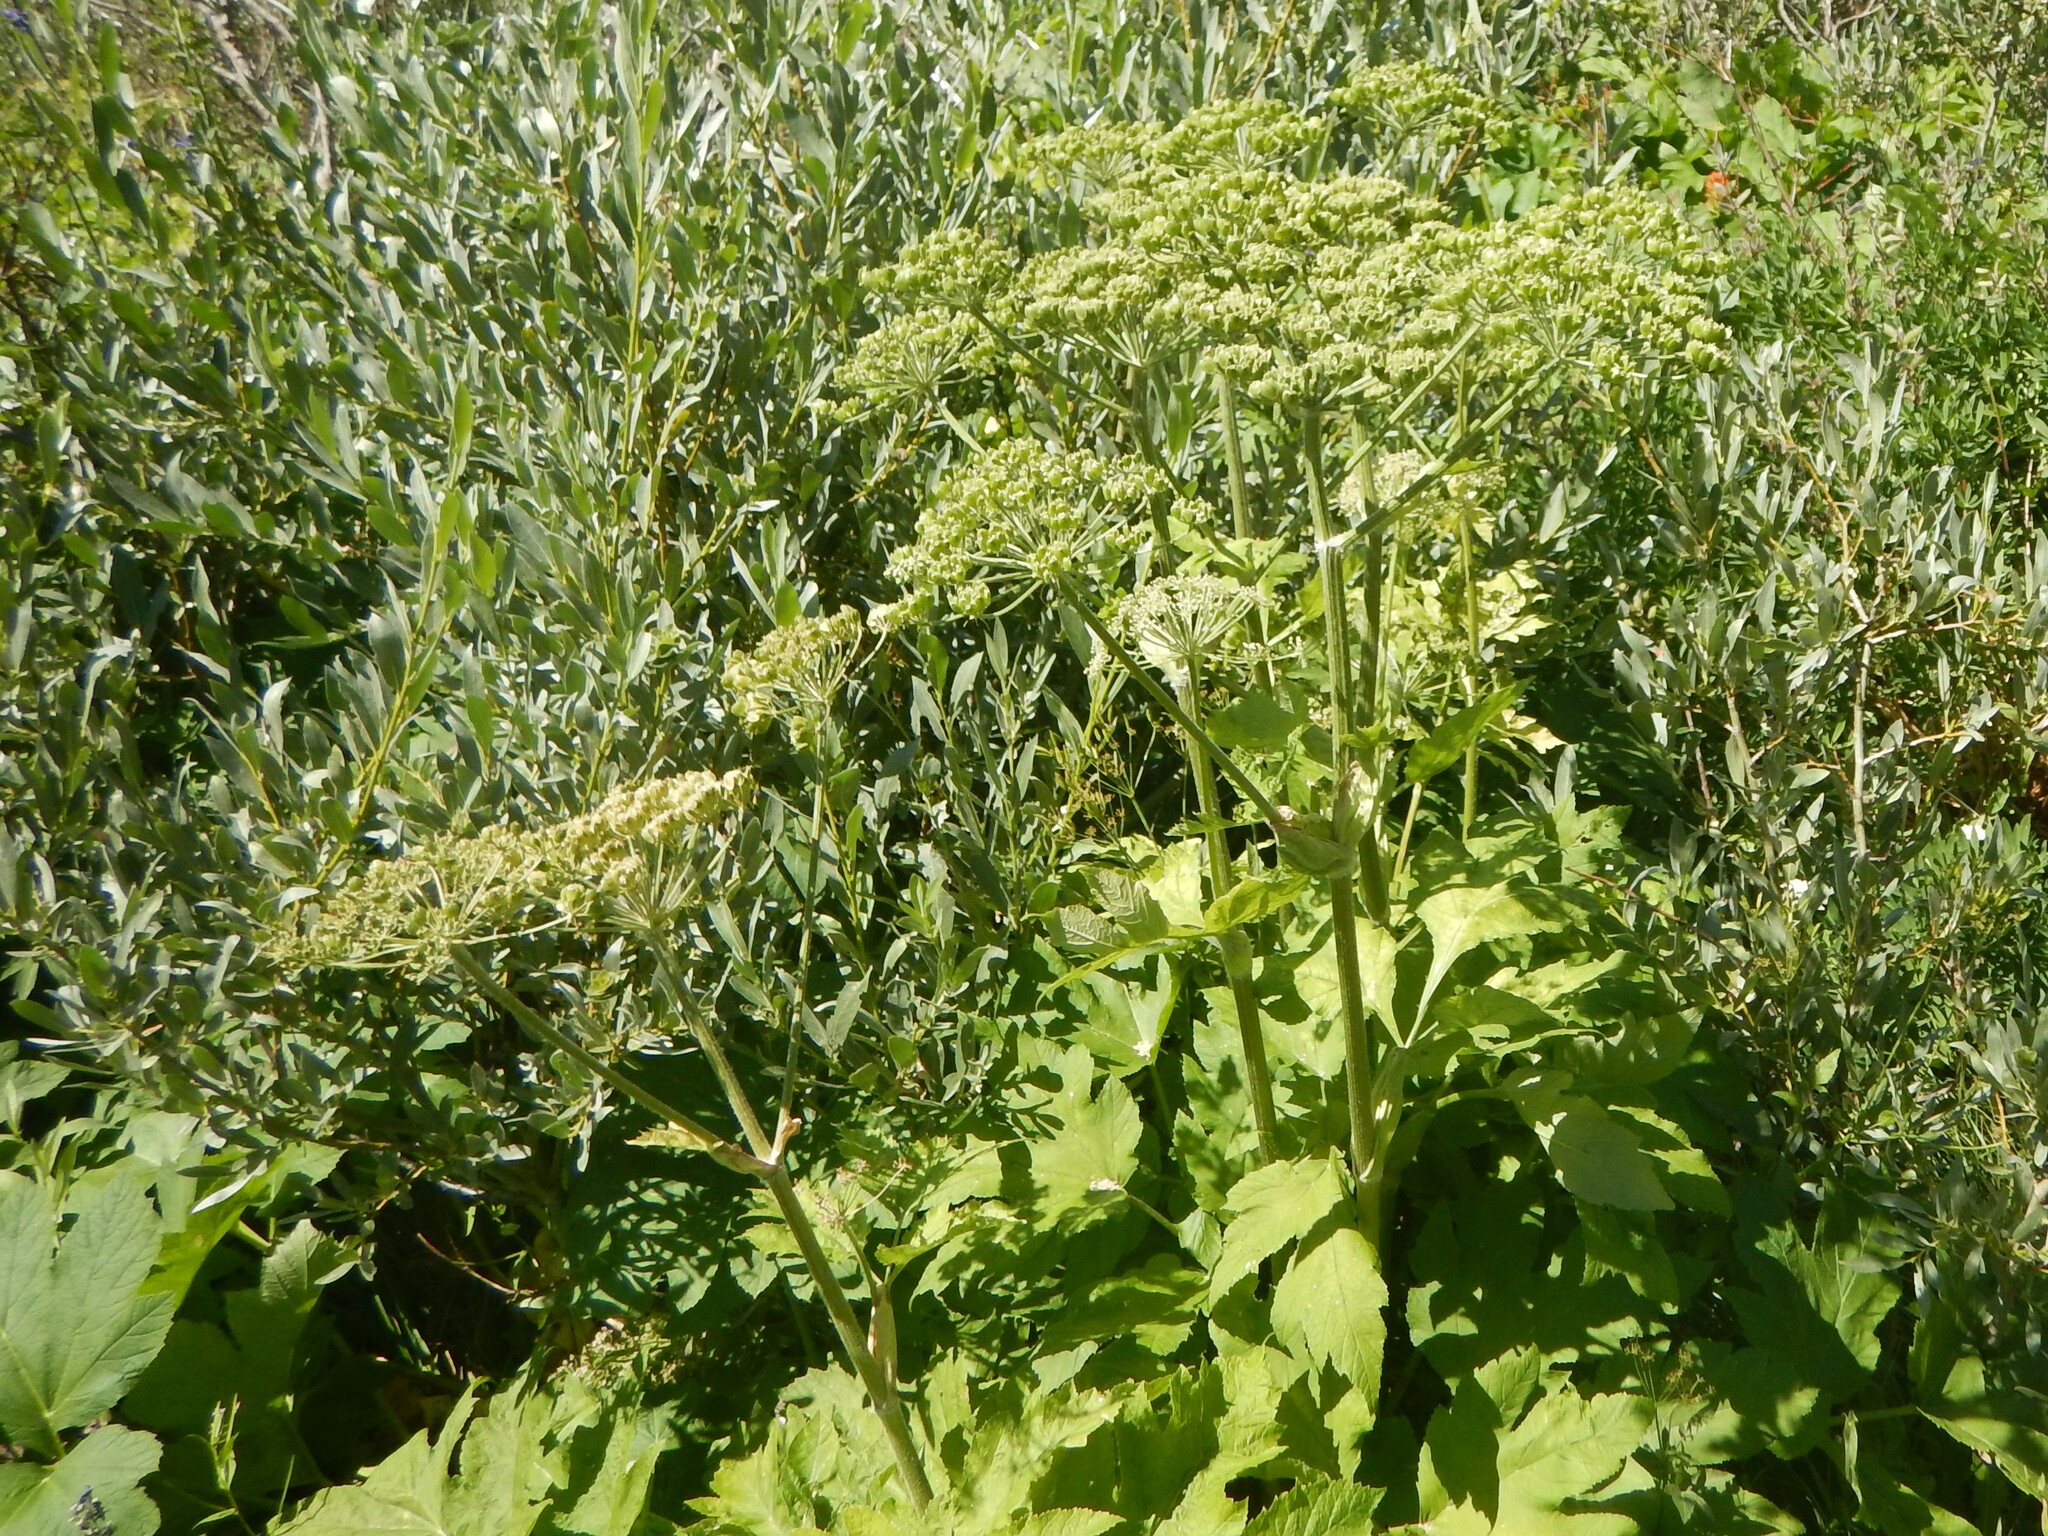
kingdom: Plantae
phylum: Tracheophyta
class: Magnoliopsida
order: Apiales
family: Apiaceae
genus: Heracleum
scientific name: Heracleum maximum
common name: American cow parsnip
